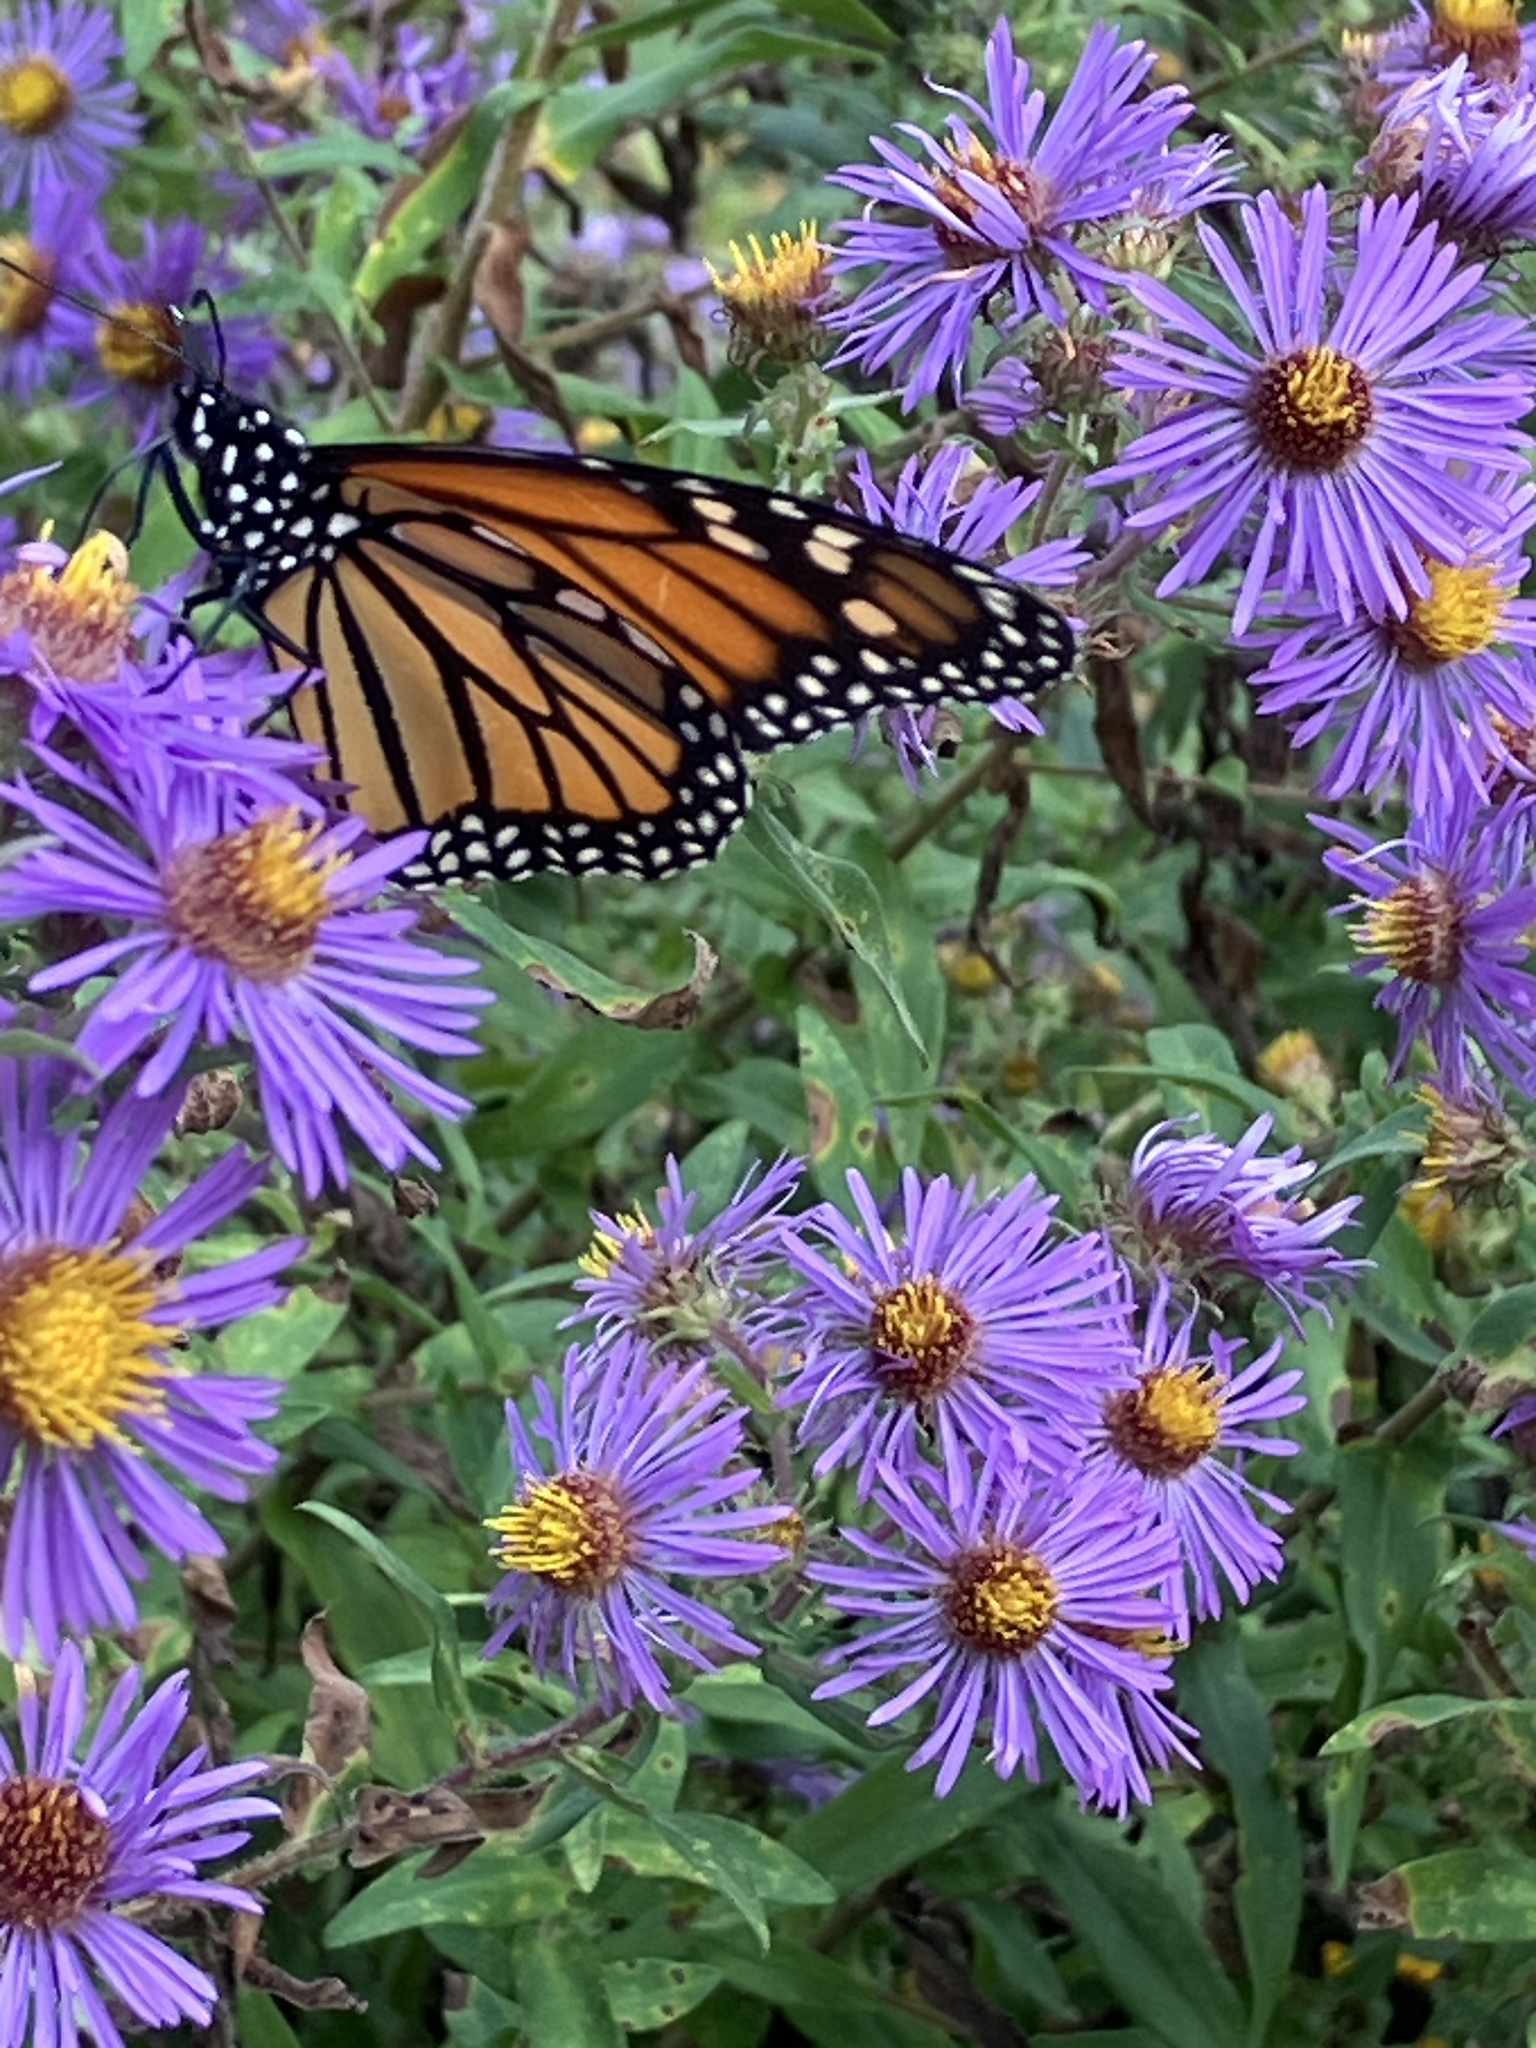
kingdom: Animalia
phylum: Arthropoda
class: Insecta
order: Lepidoptera
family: Nymphalidae
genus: Danaus
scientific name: Danaus plexippus
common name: Monarch
